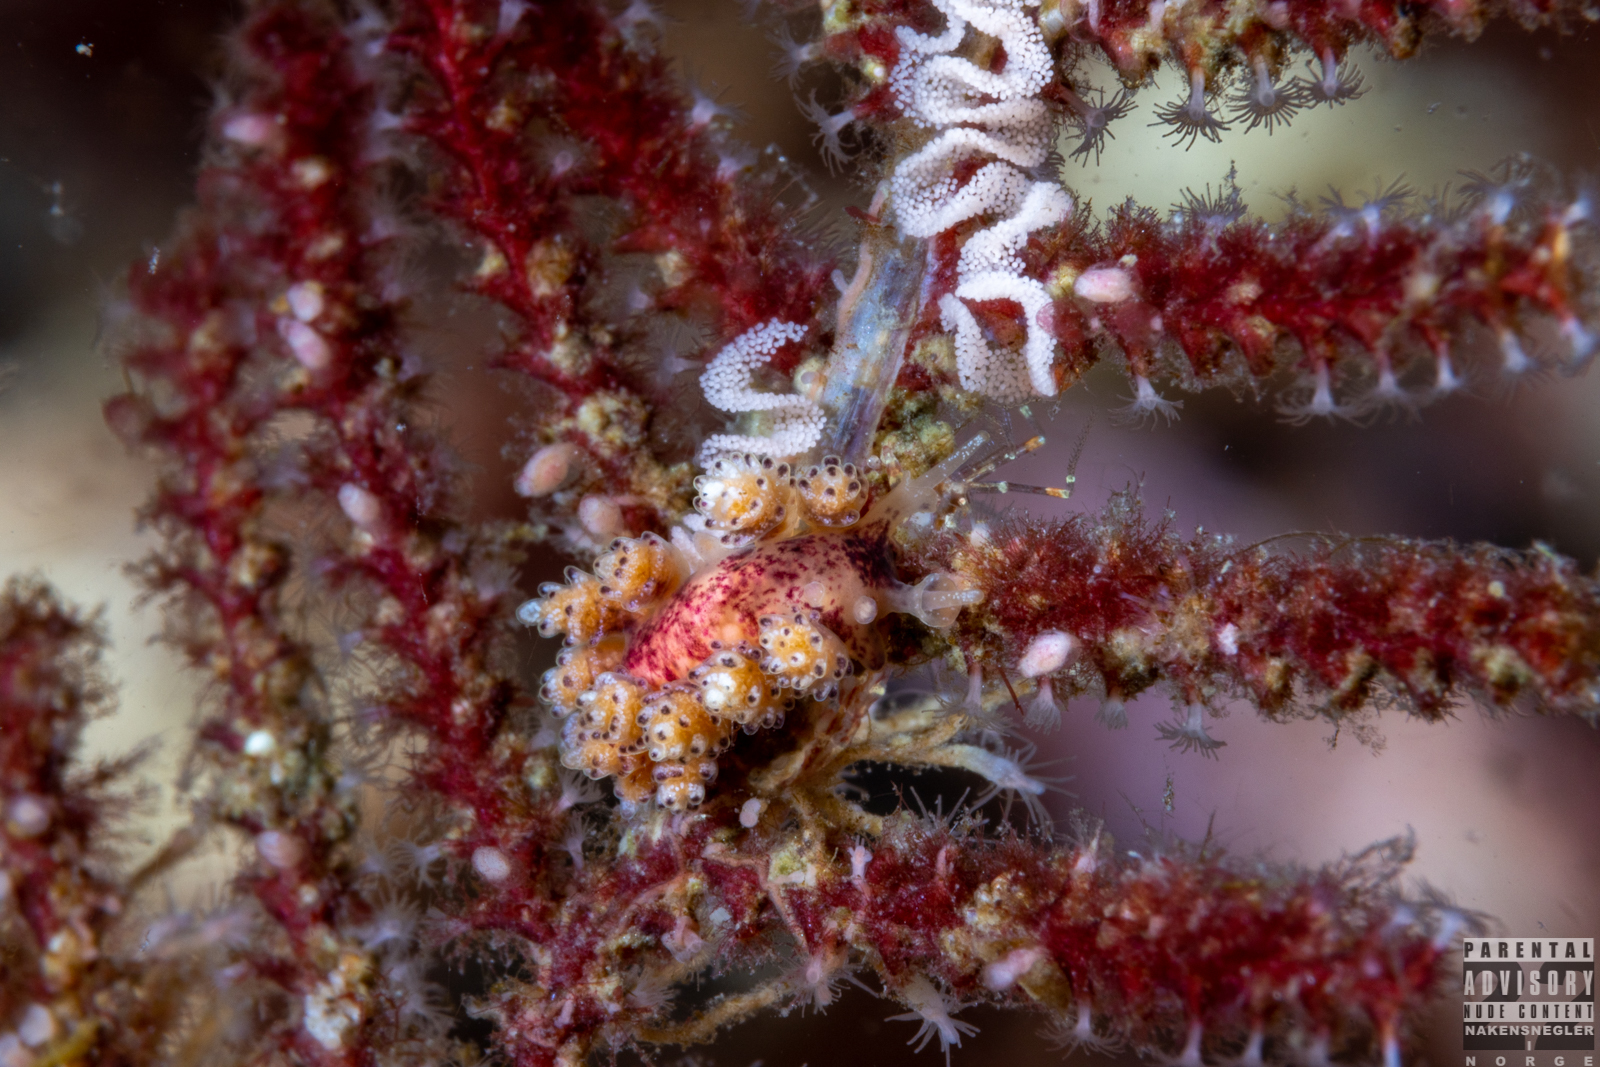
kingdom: Animalia
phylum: Mollusca
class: Gastropoda
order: Nudibranchia
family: Dotidae
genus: Doto
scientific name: Doto coronata
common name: Coronate doto
